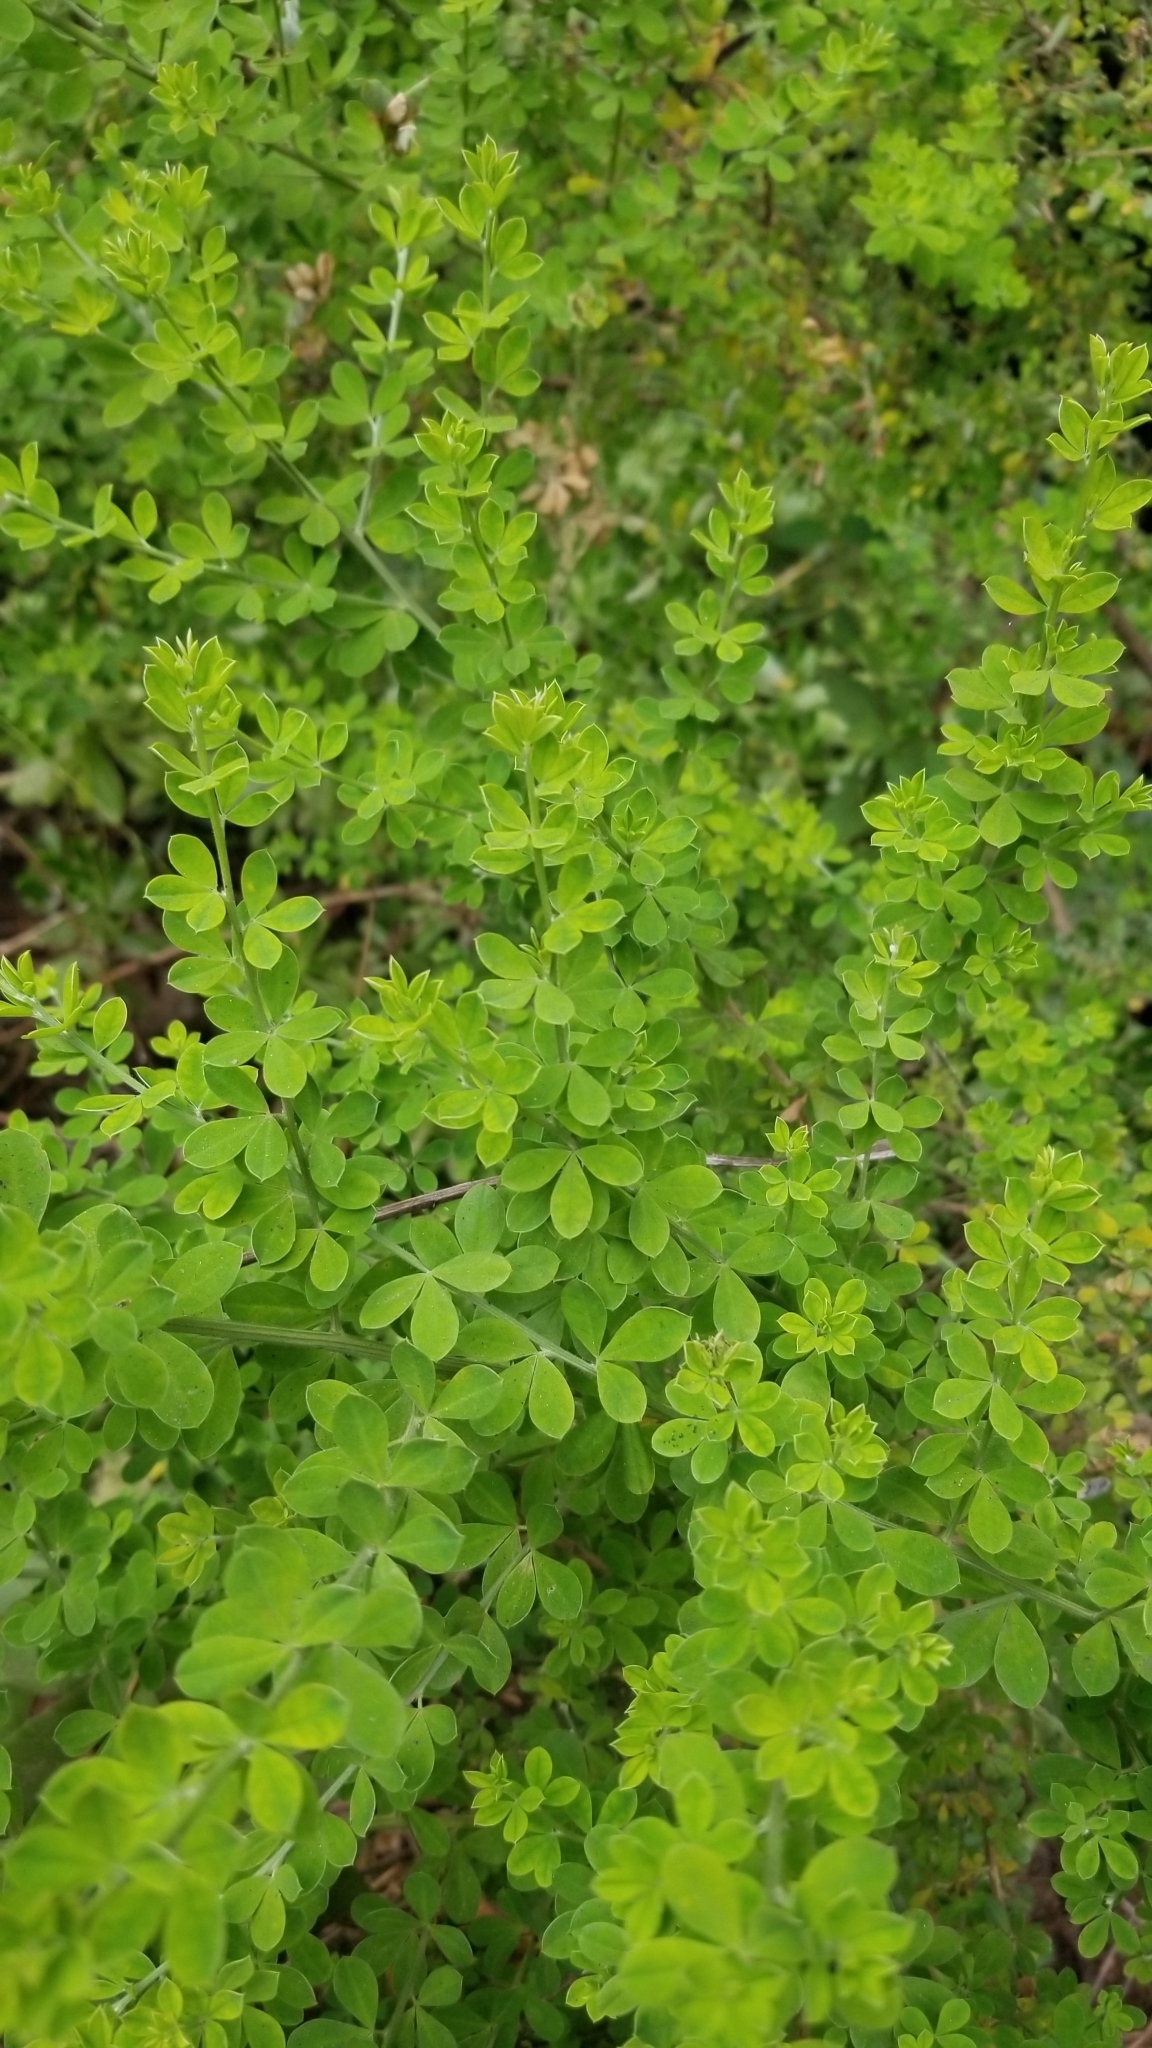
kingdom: Plantae
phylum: Tracheophyta
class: Magnoliopsida
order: Fabales
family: Fabaceae
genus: Genista
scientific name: Genista monspessulana
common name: Montpellier broom
